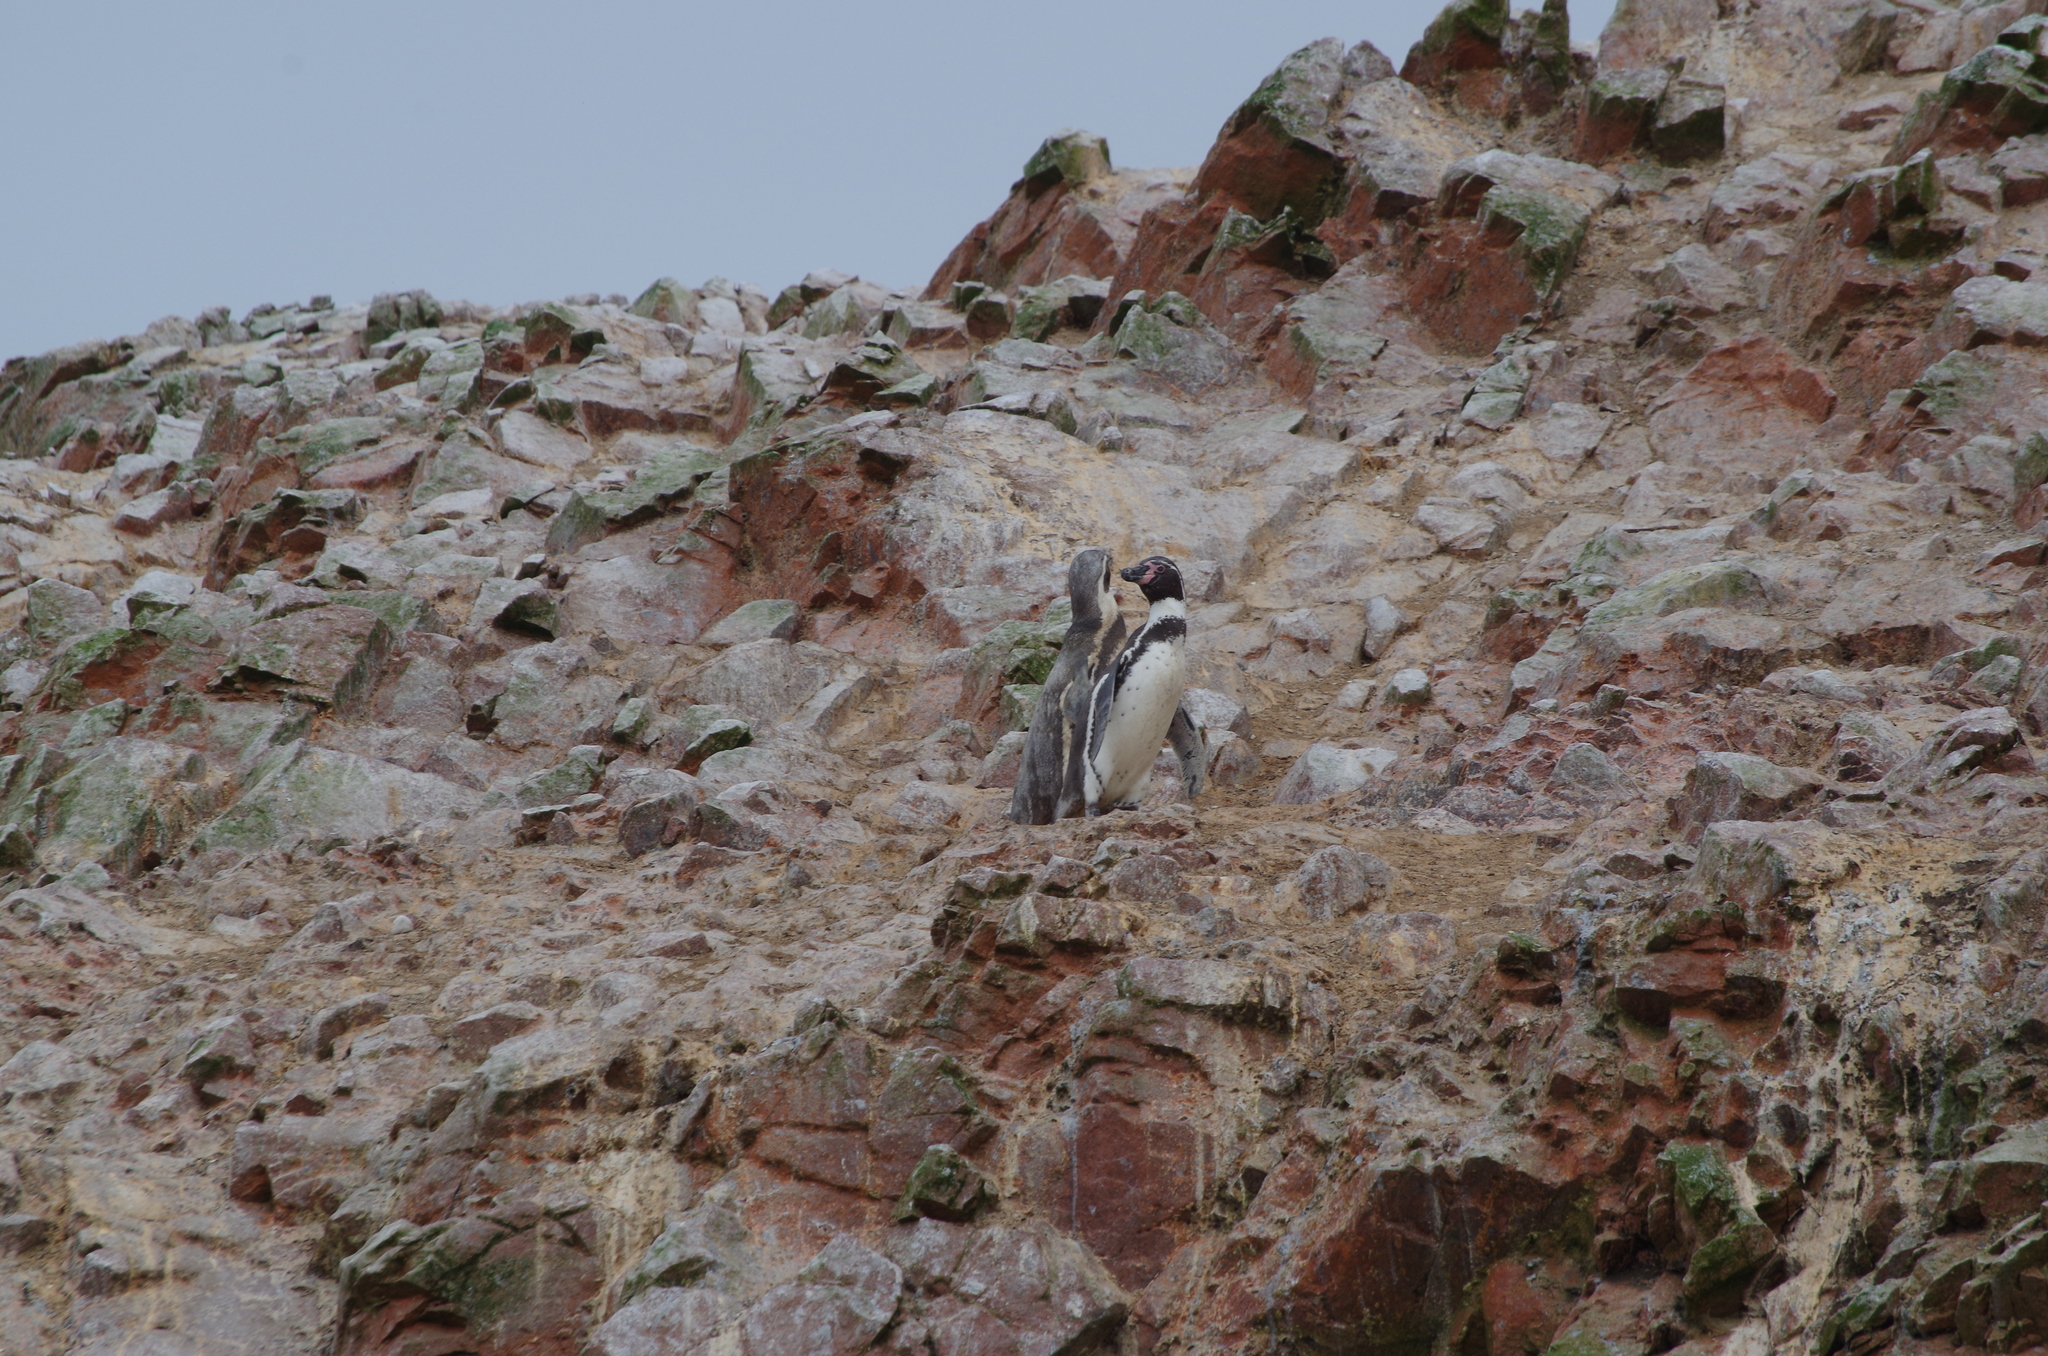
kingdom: Animalia
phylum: Chordata
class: Aves
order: Sphenisciformes
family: Spheniscidae
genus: Spheniscus
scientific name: Spheniscus humboldti
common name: Humboldt penguin
